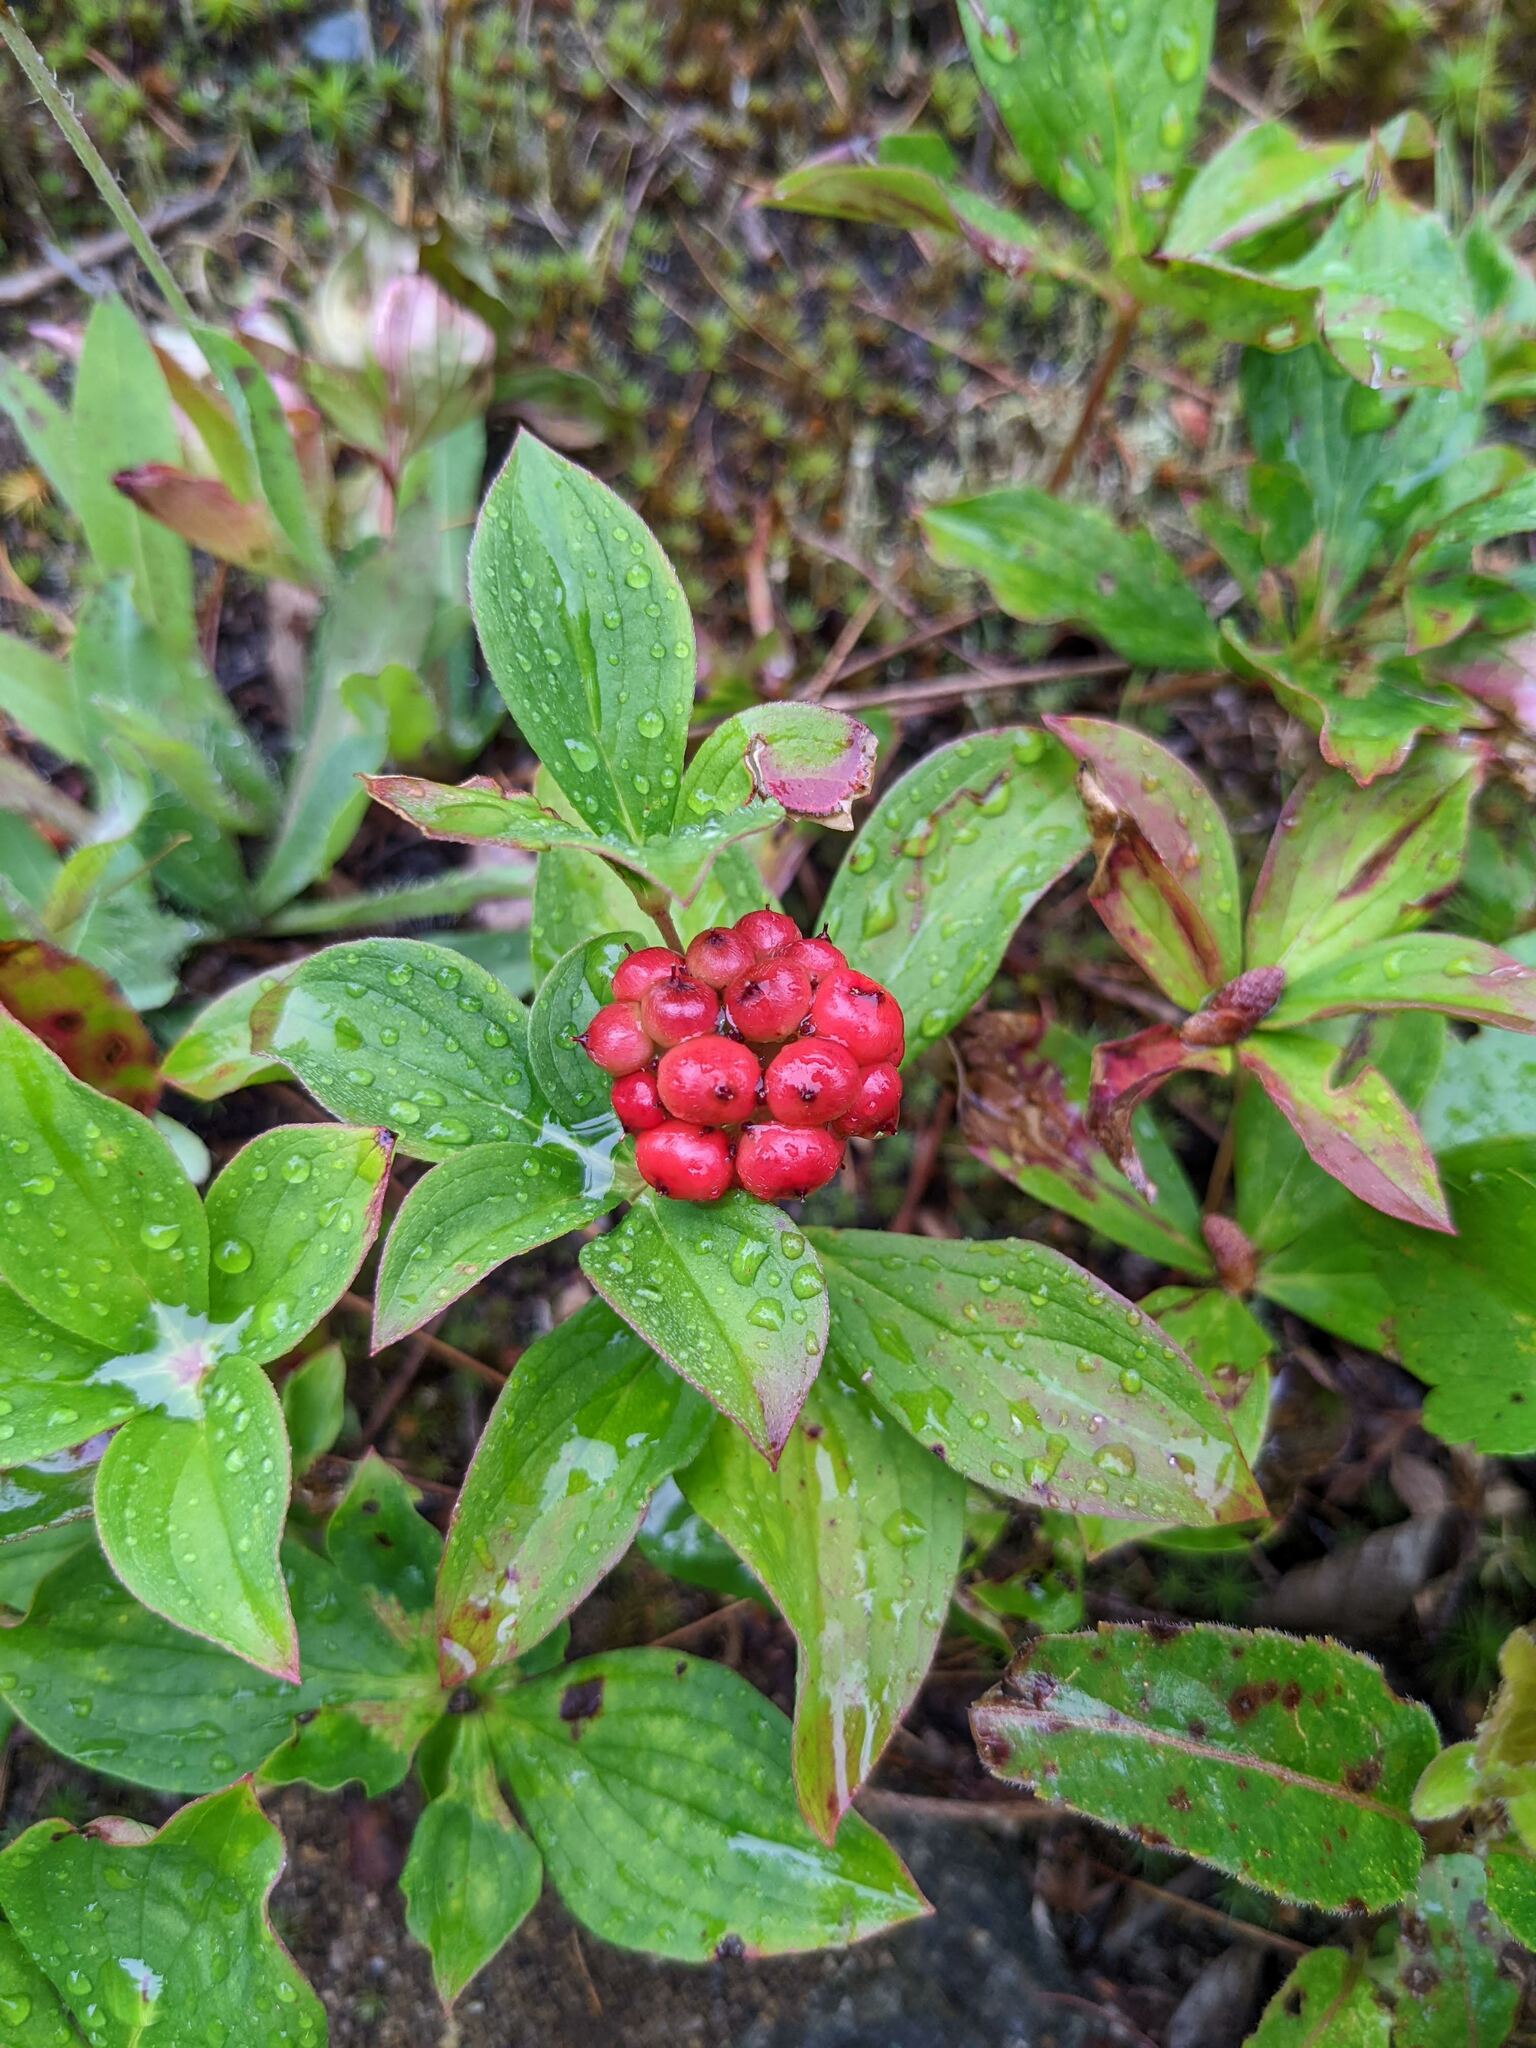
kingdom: Plantae
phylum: Tracheophyta
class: Magnoliopsida
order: Cornales
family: Cornaceae
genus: Cornus
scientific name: Cornus canadensis
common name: Creeping dogwood
